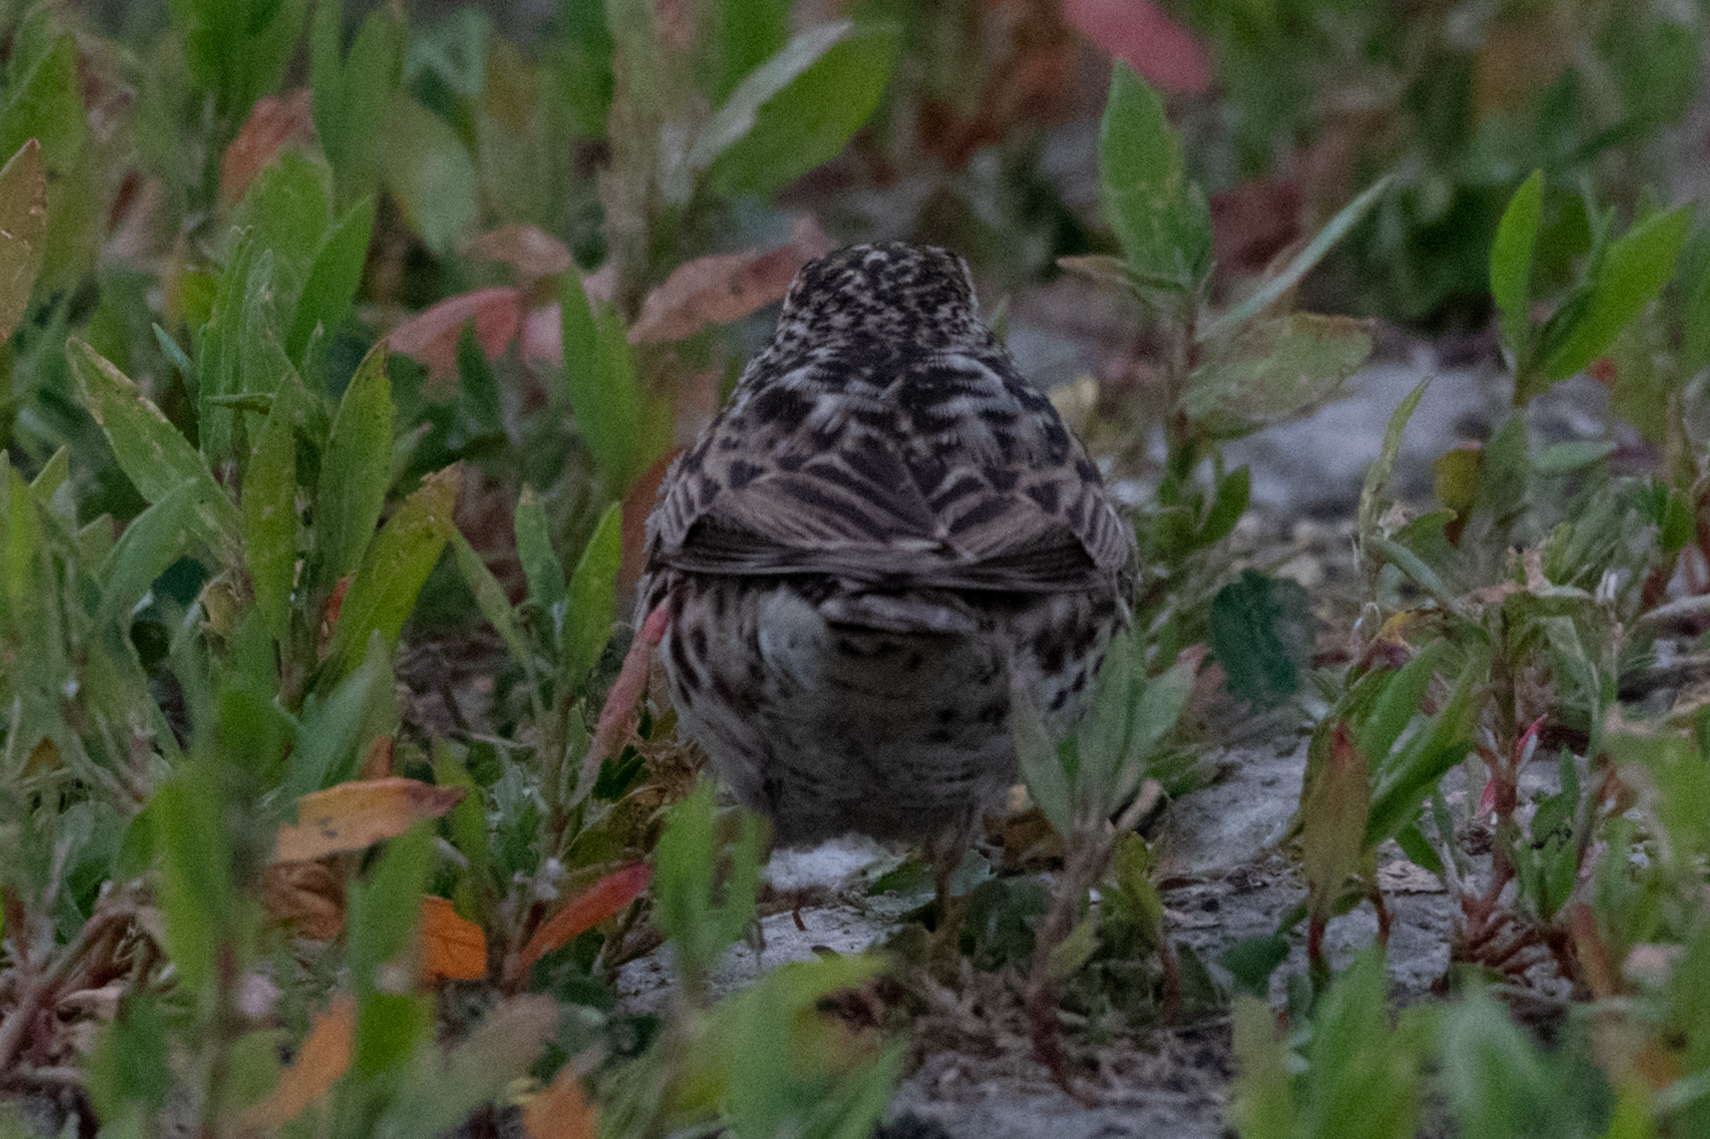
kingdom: Animalia
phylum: Chordata
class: Aves
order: Passeriformes
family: Passerellidae
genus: Passerculus
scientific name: Passerculus sandwichensis
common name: Savannah sparrow
